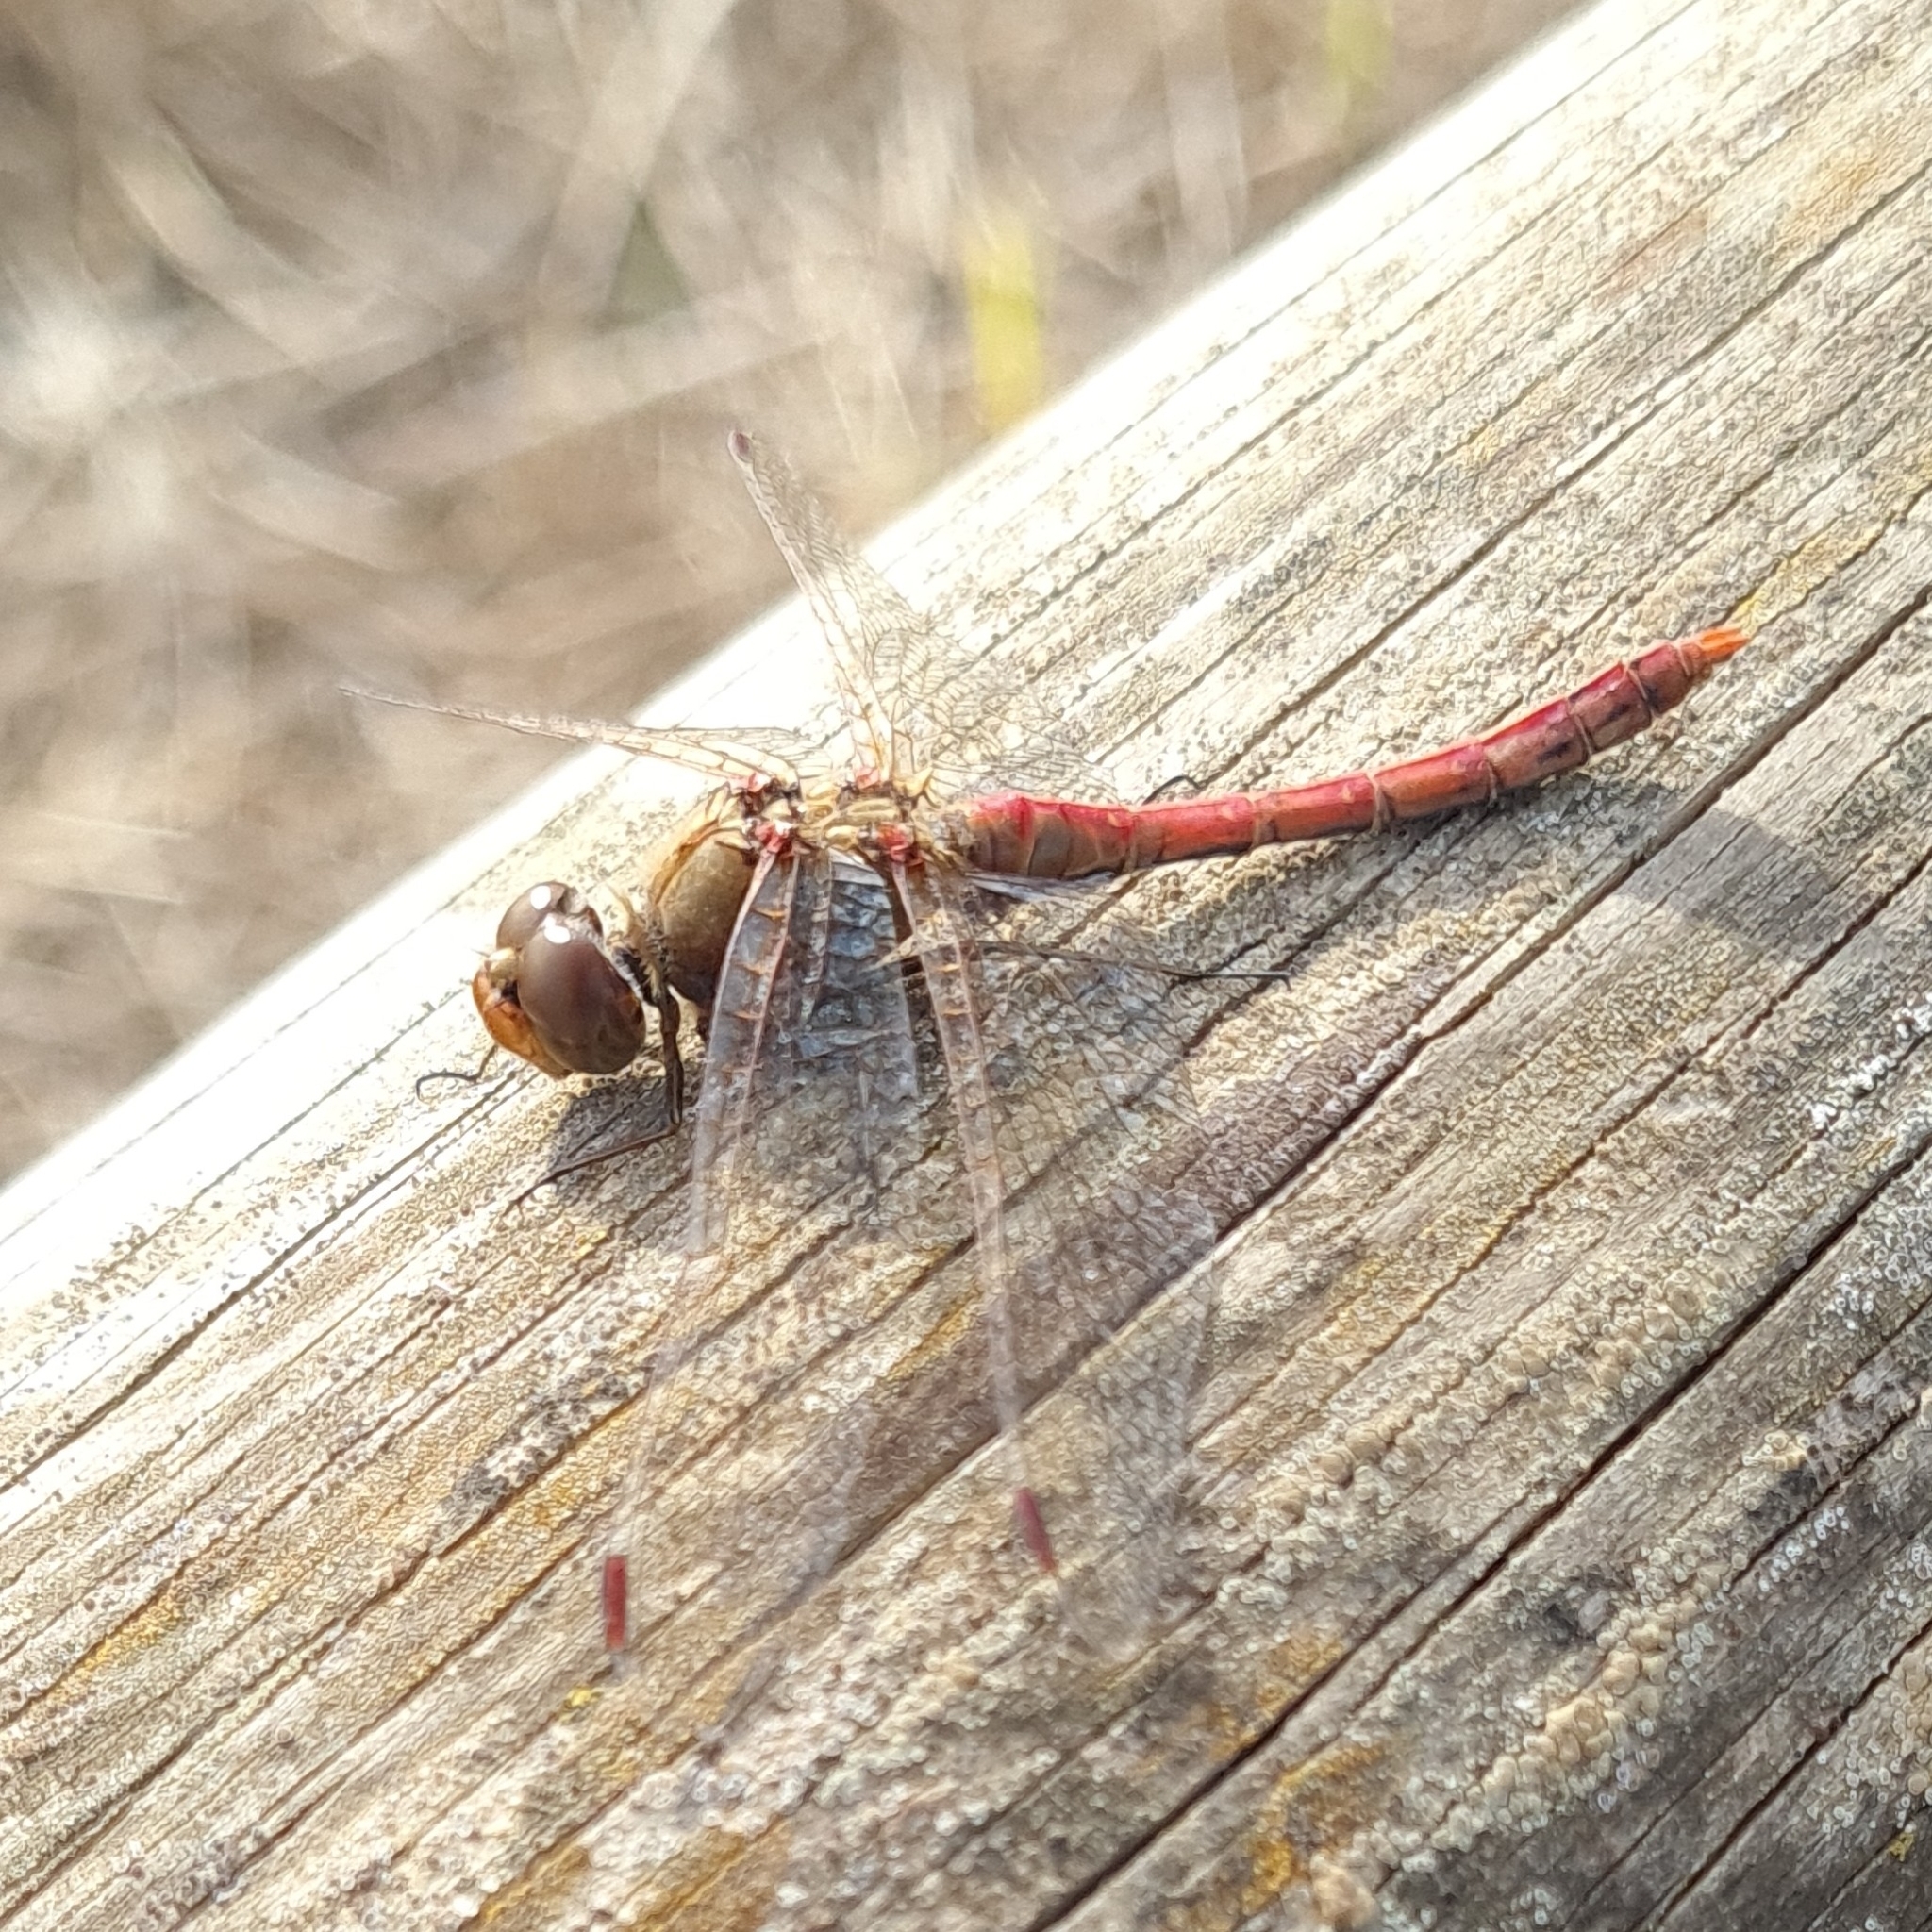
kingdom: Animalia
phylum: Arthropoda
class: Insecta
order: Odonata
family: Libellulidae
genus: Sympetrum
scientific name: Sympetrum striolatum
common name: Common darter
